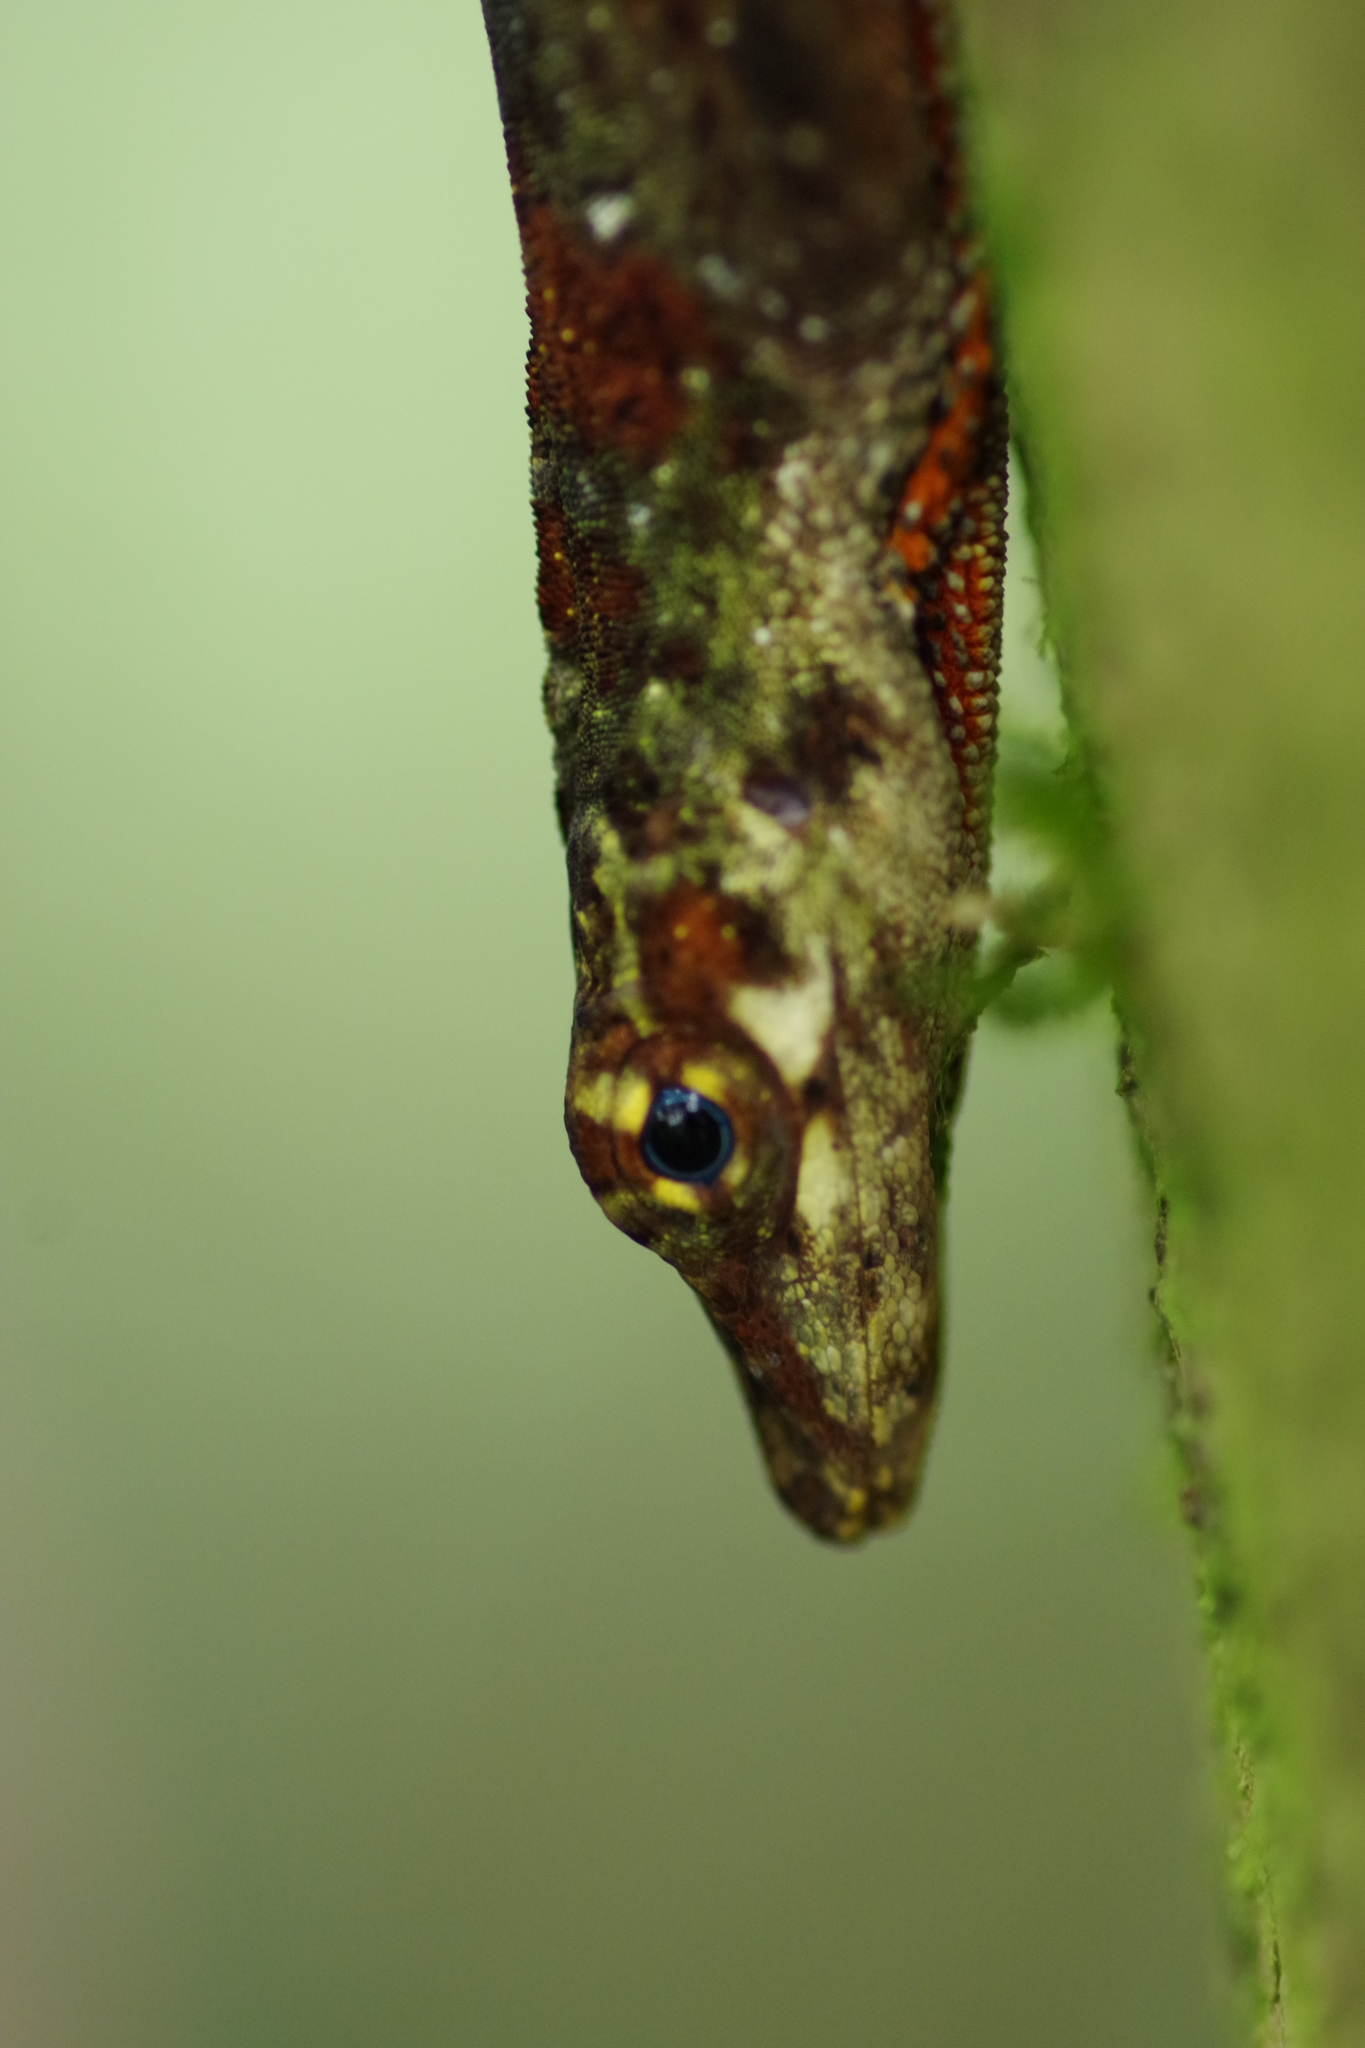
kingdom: Animalia
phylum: Chordata
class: Squamata
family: Dactyloidae
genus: Anolis
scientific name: Anolis woodi
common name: Wood's anole
